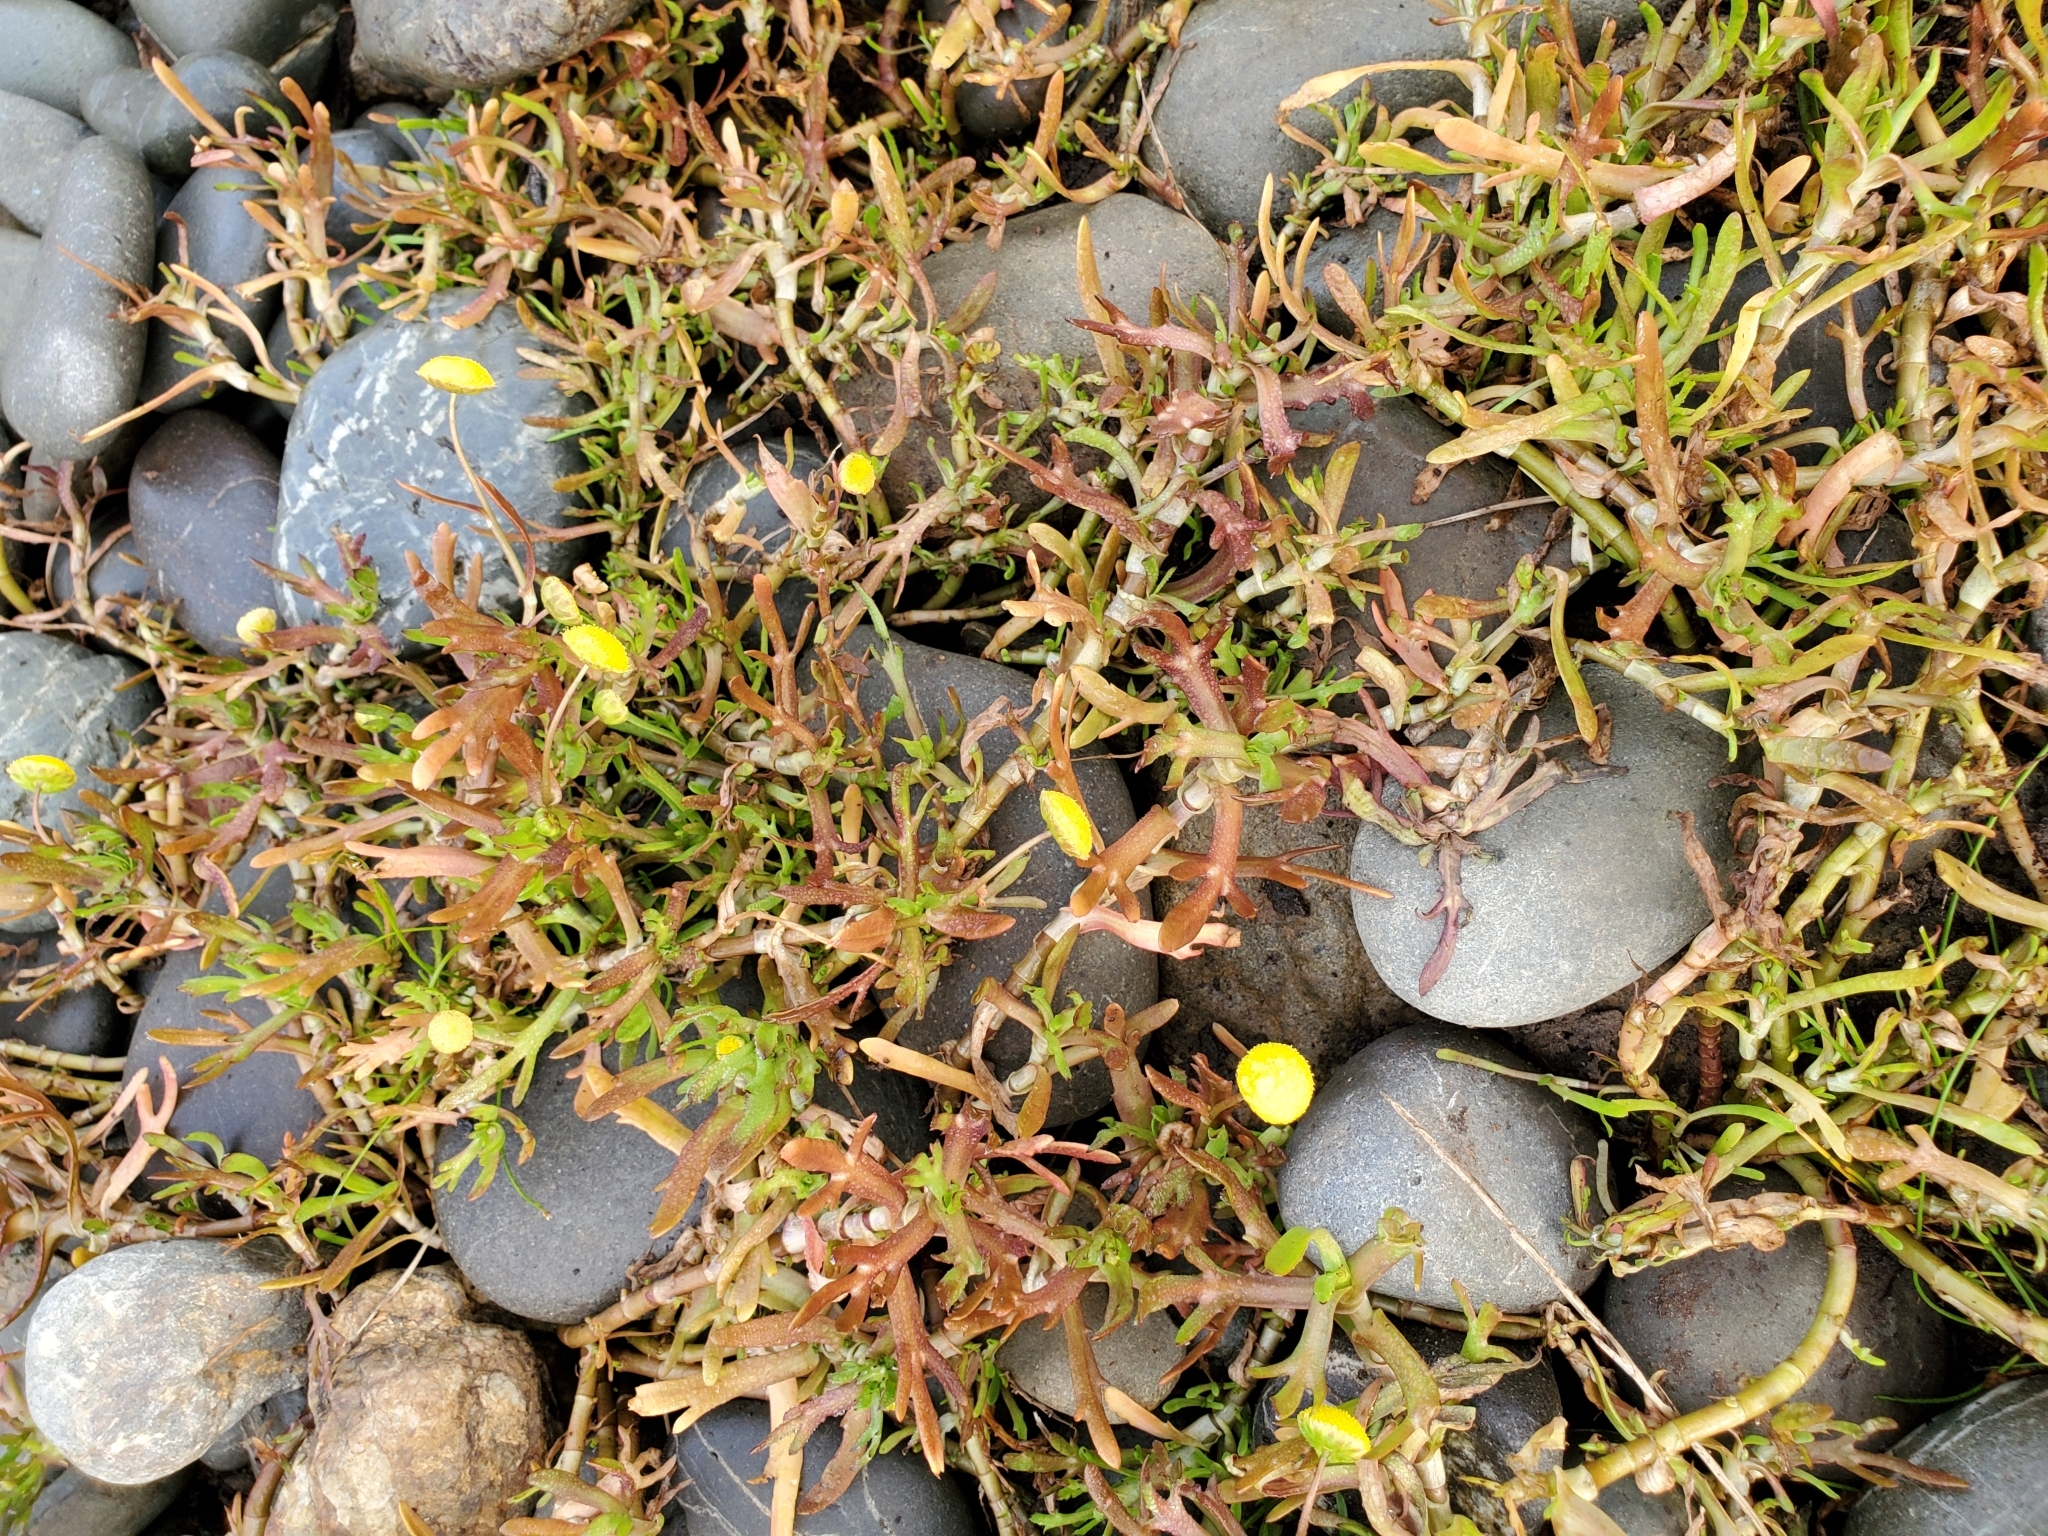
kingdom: Plantae
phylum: Tracheophyta
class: Magnoliopsida
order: Asterales
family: Asteraceae
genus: Cotula
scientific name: Cotula coronopifolia
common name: Buttonweed
